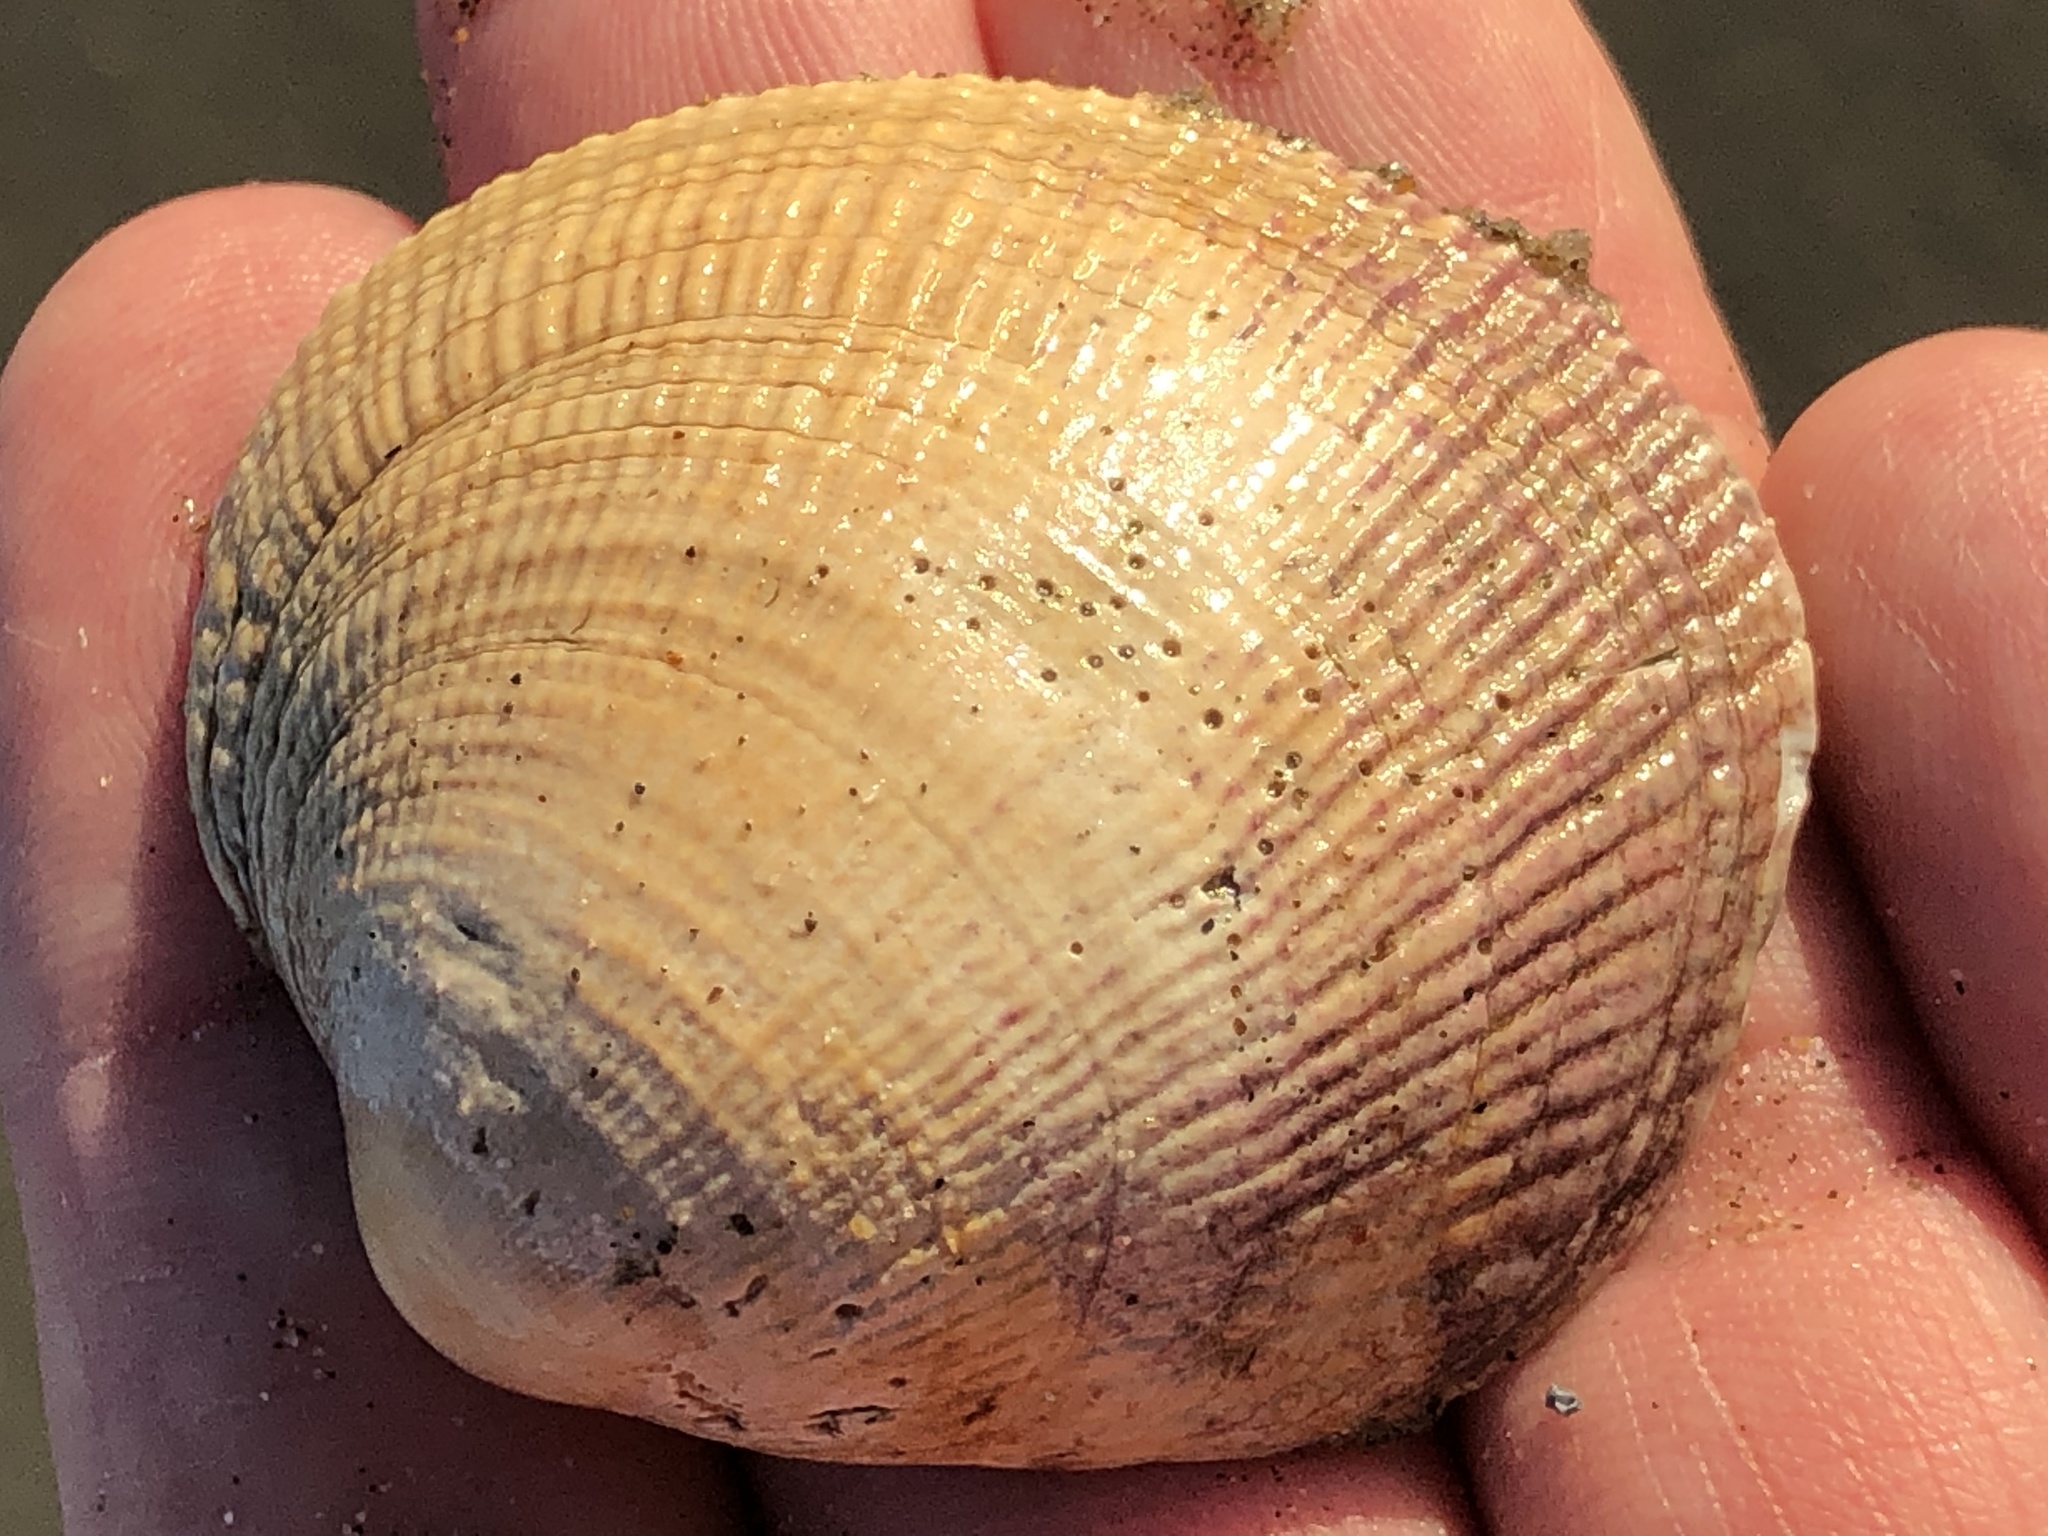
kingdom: Animalia
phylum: Mollusca
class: Bivalvia
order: Venerida
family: Veneridae
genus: Leukoma
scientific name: Leukoma staminea
